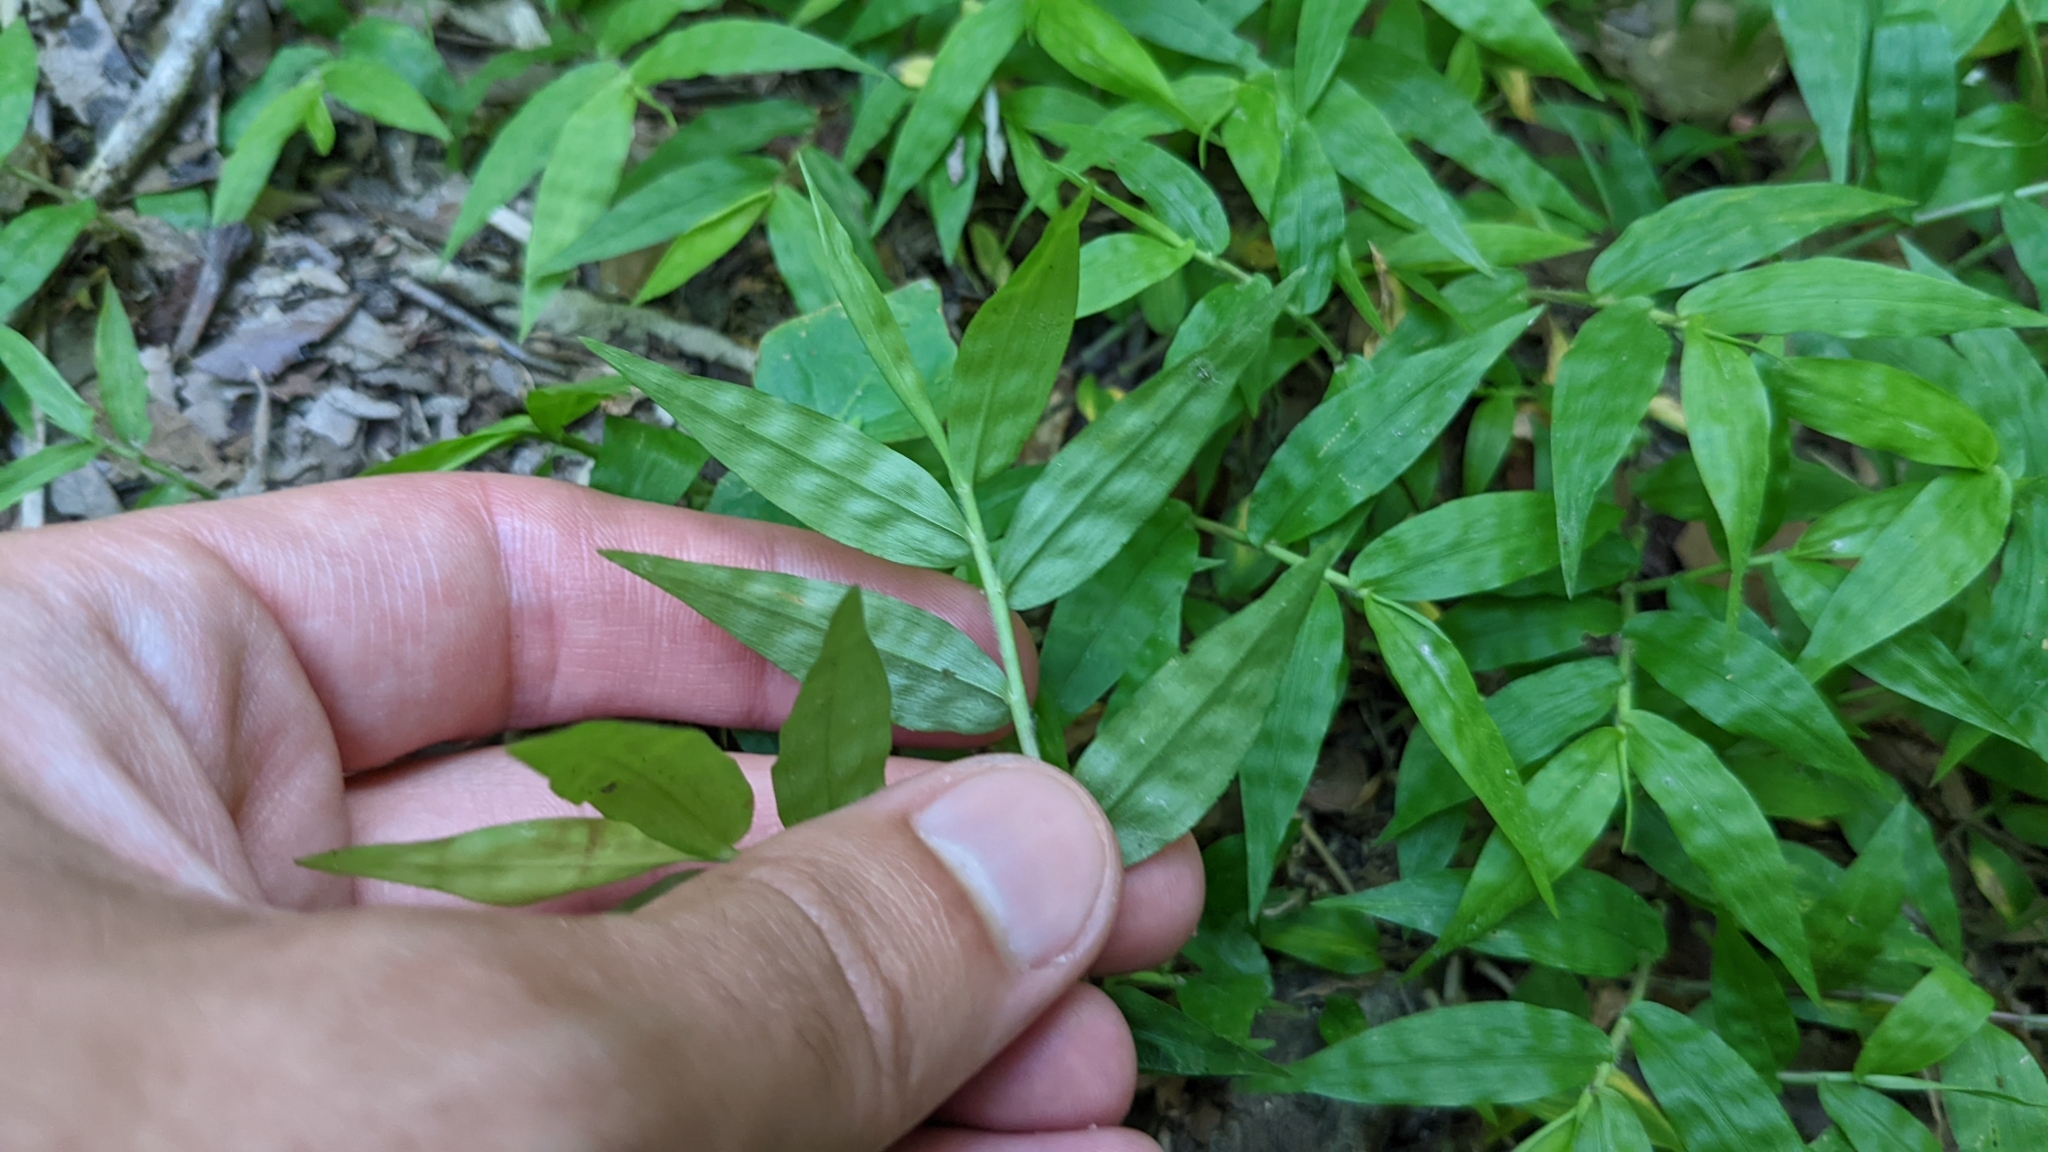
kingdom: Plantae
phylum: Tracheophyta
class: Liliopsida
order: Poales
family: Poaceae
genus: Oplismenus
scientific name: Oplismenus hirtellus
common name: Basketgrass
